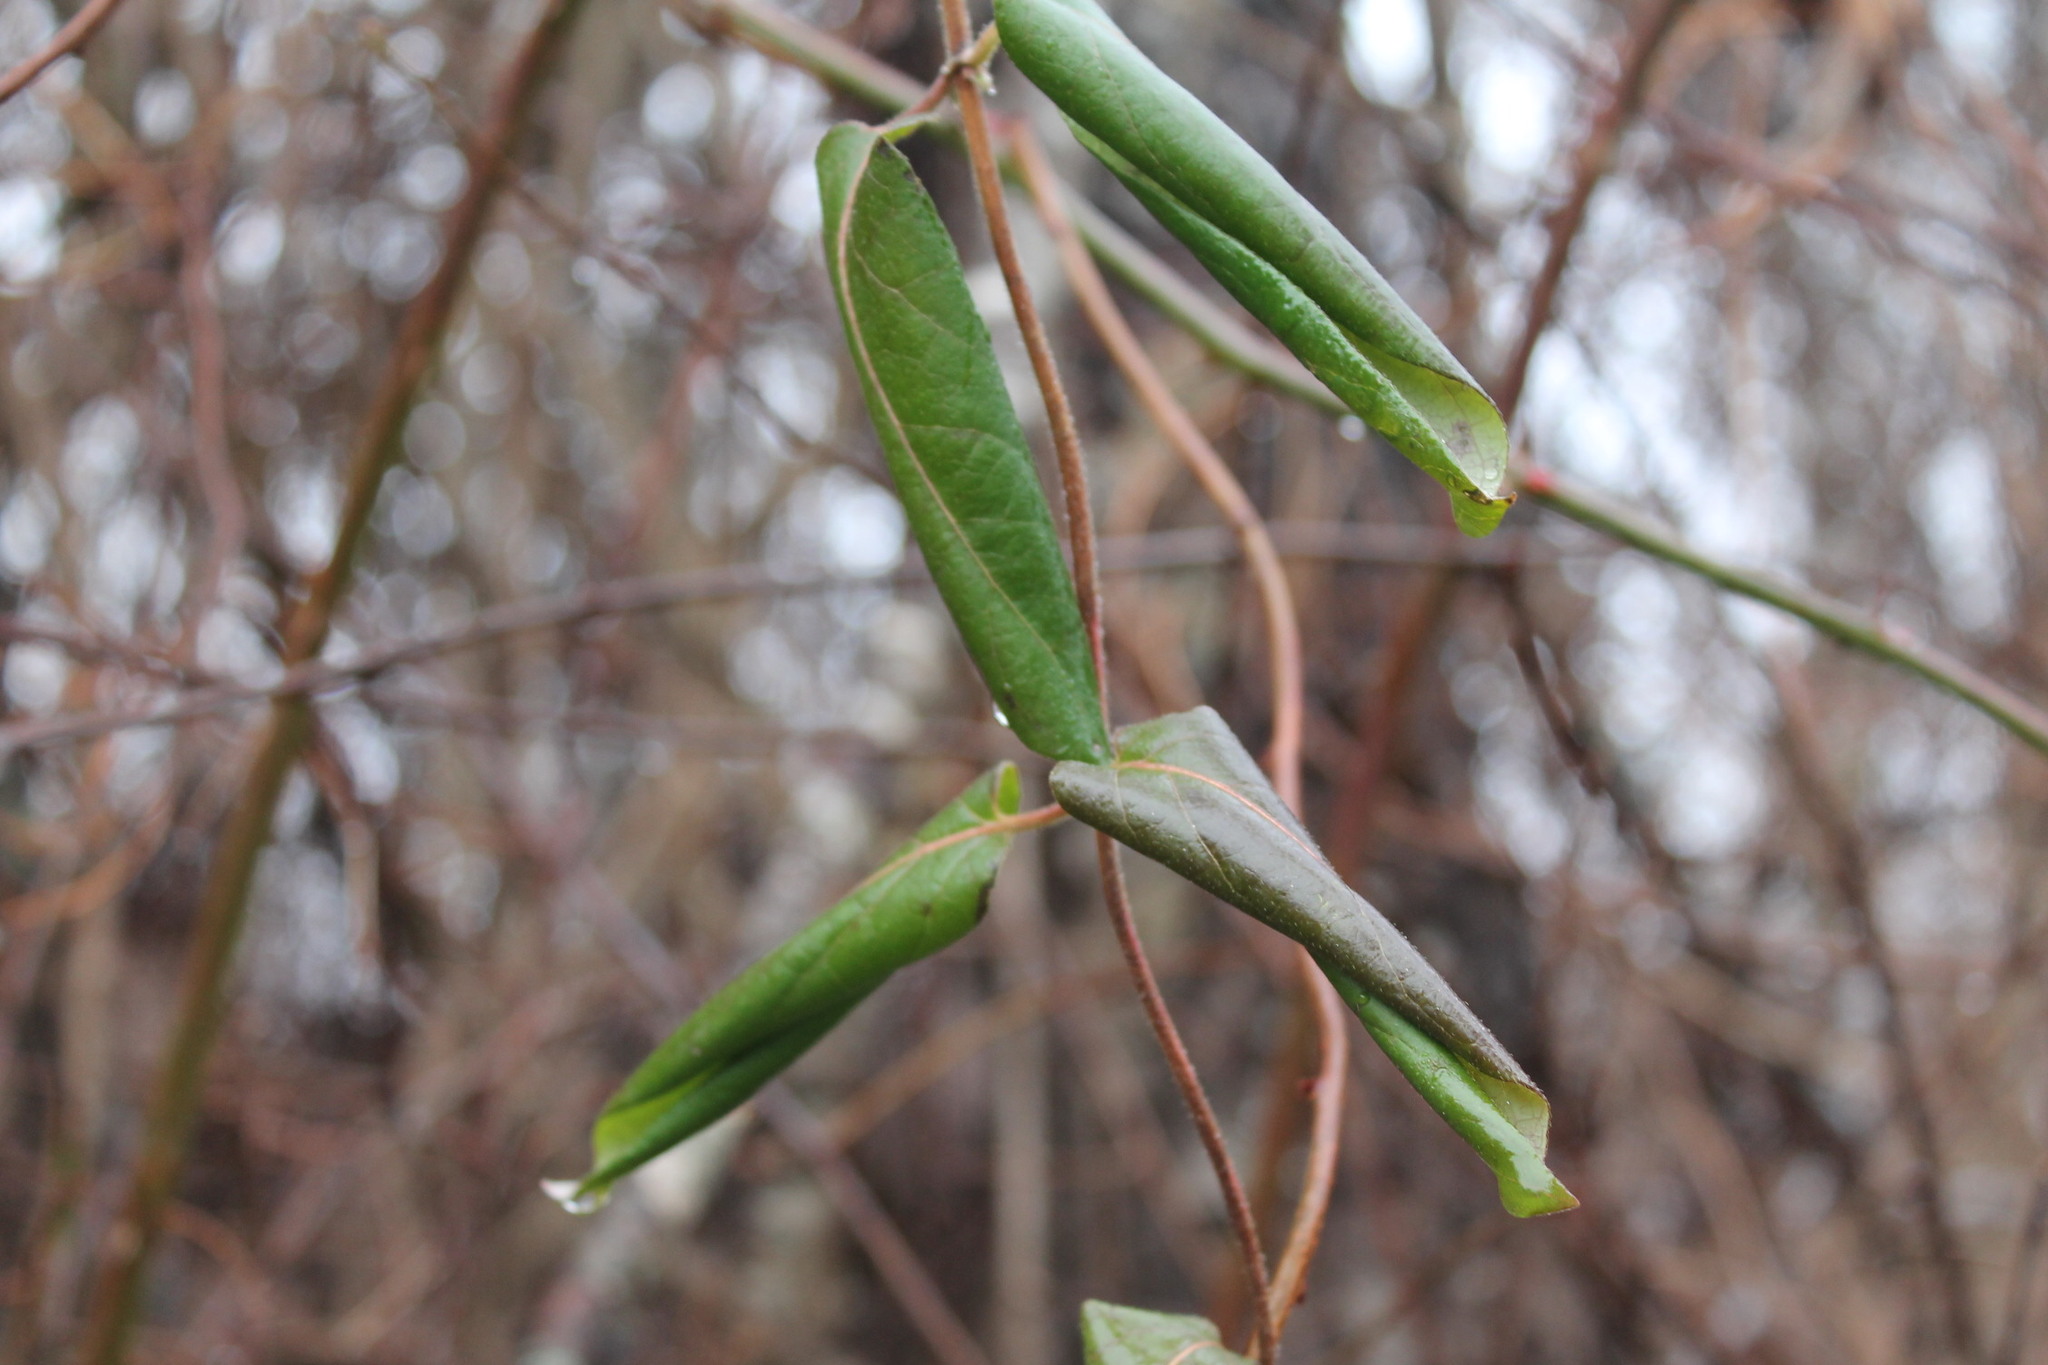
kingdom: Plantae
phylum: Tracheophyta
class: Magnoliopsida
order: Dipsacales
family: Caprifoliaceae
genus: Lonicera
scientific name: Lonicera japonica
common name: Japanese honeysuckle
